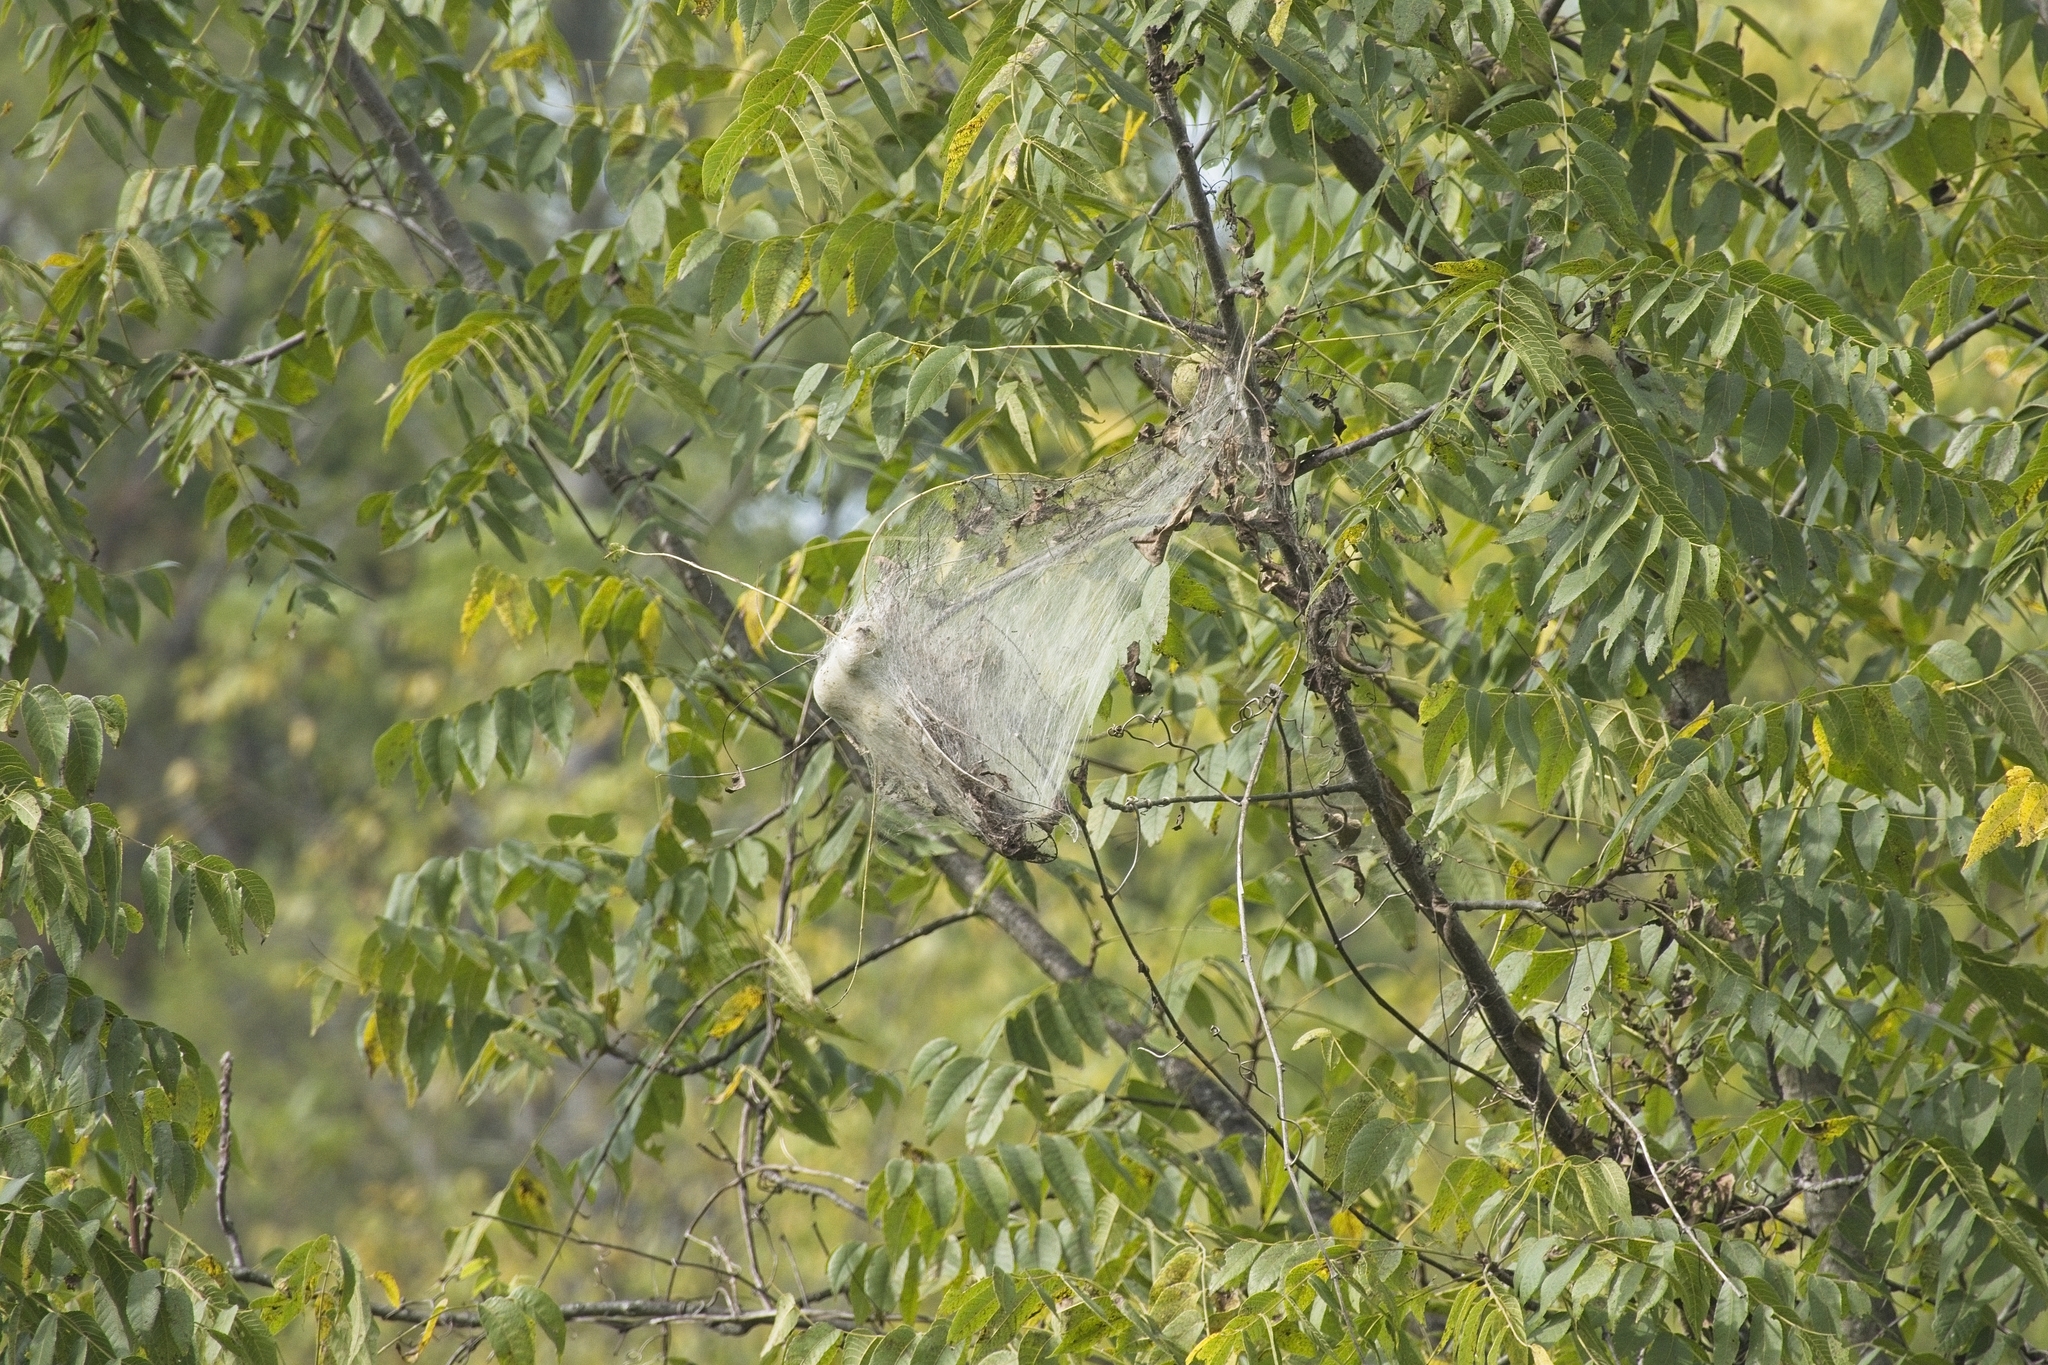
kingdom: Animalia
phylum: Arthropoda
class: Insecta
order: Lepidoptera
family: Erebidae
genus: Hyphantria
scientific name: Hyphantria cunea
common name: American white moth
